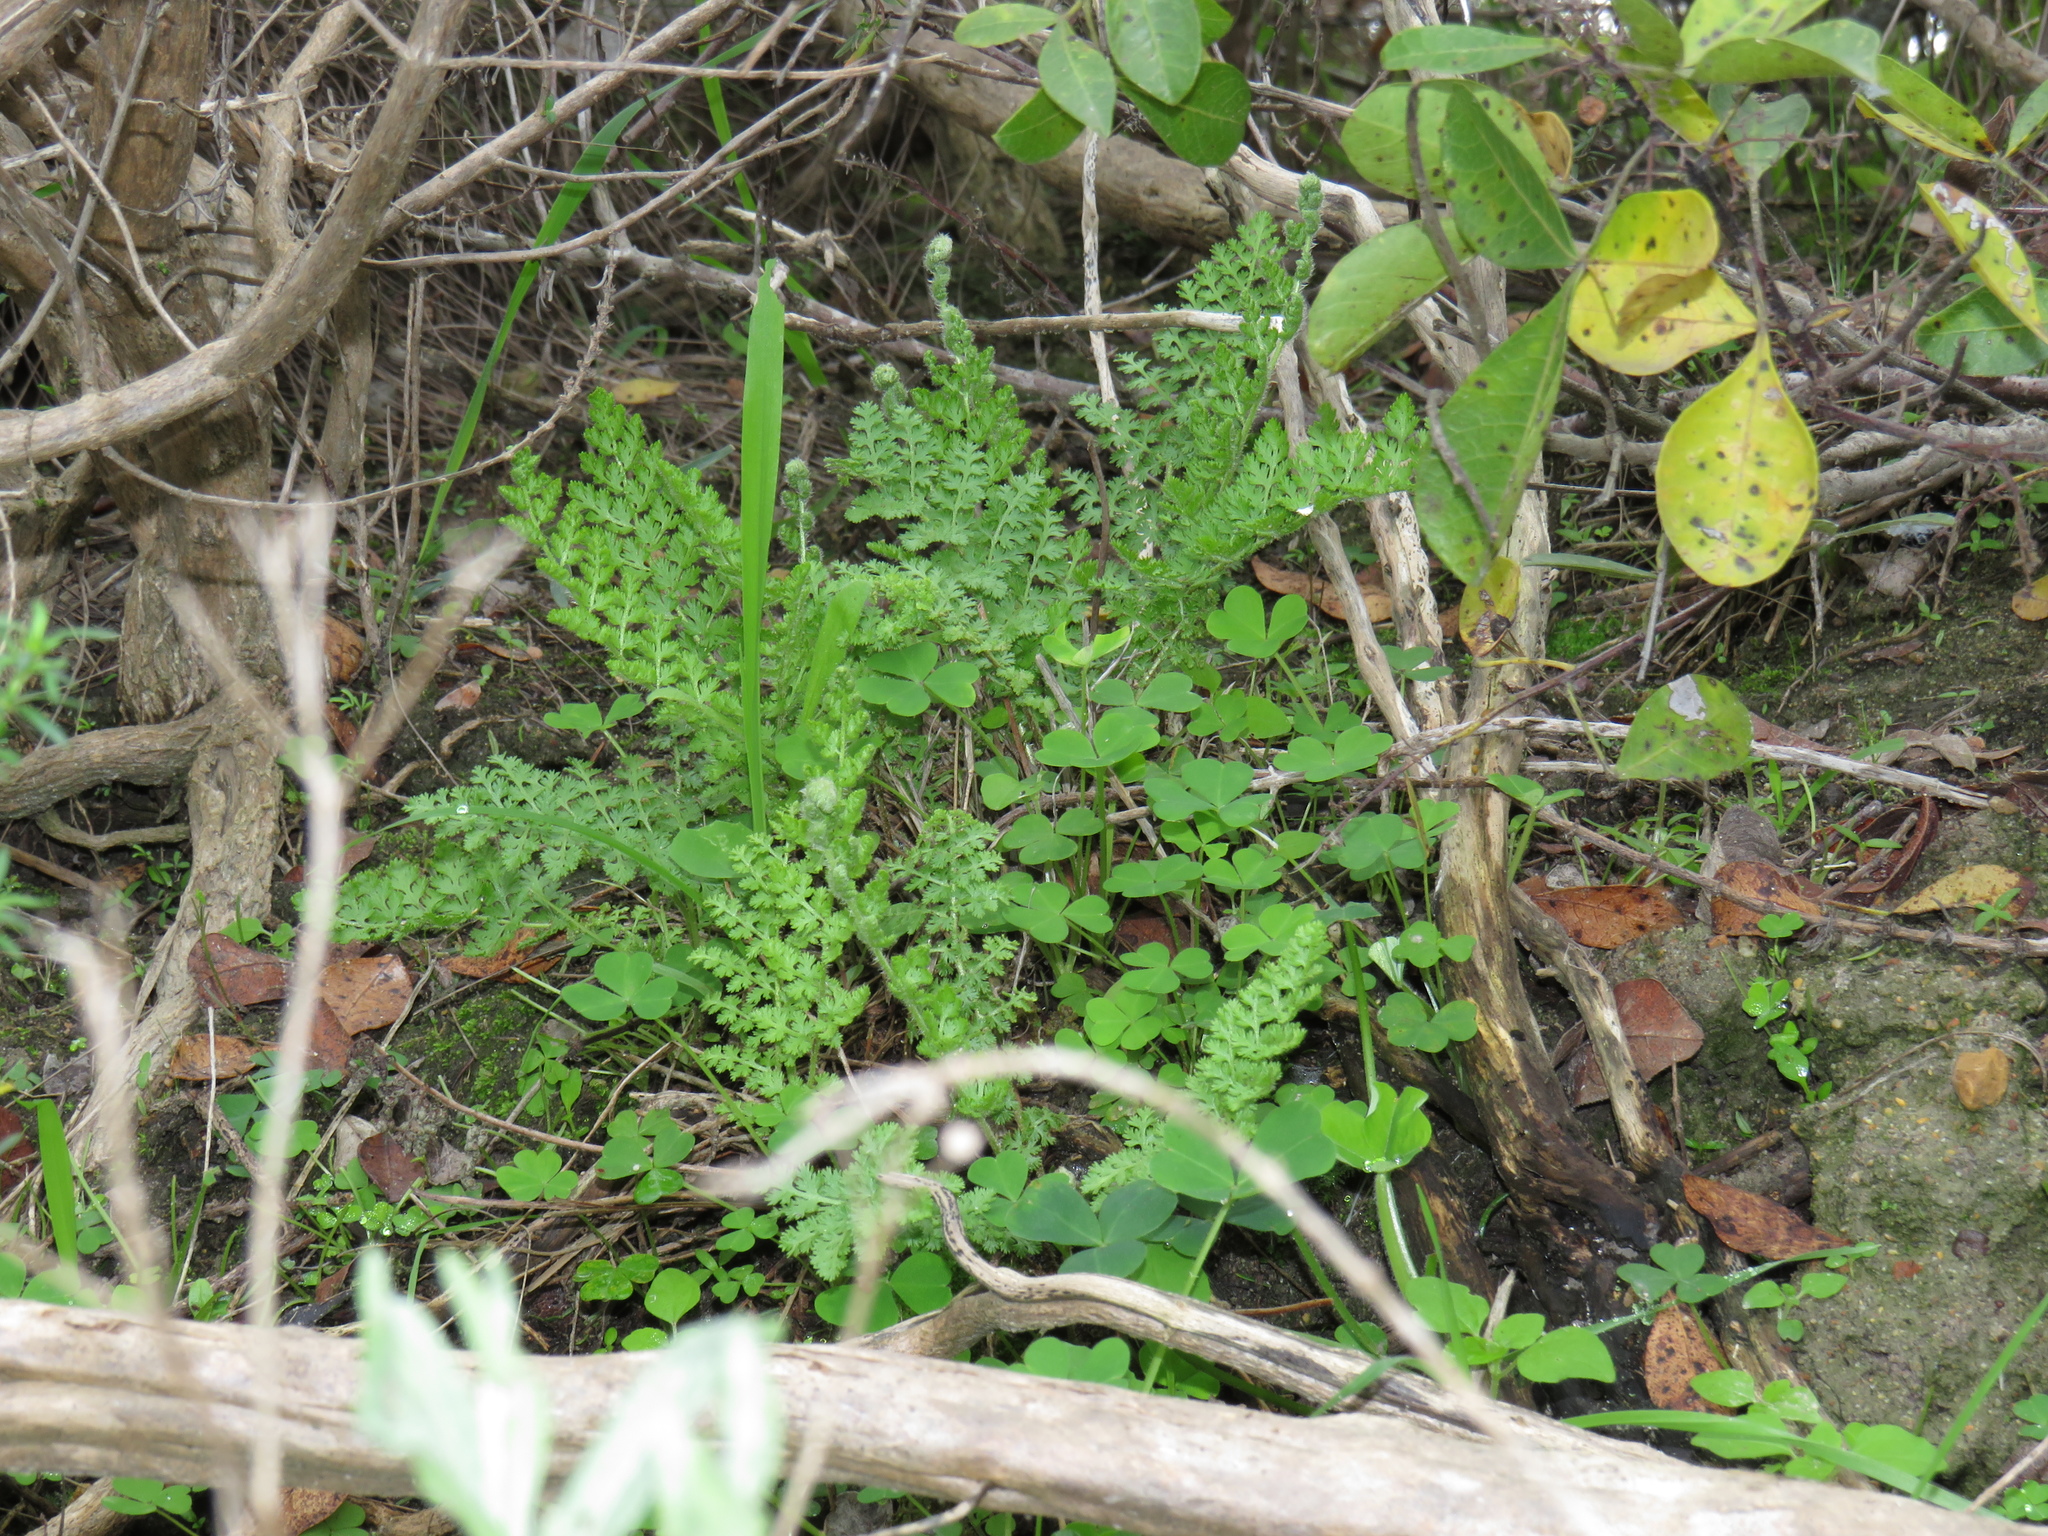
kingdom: Plantae
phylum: Tracheophyta
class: Polypodiopsida
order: Schizaeales
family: Anemiaceae
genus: Anemia
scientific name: Anemia caffrorum
